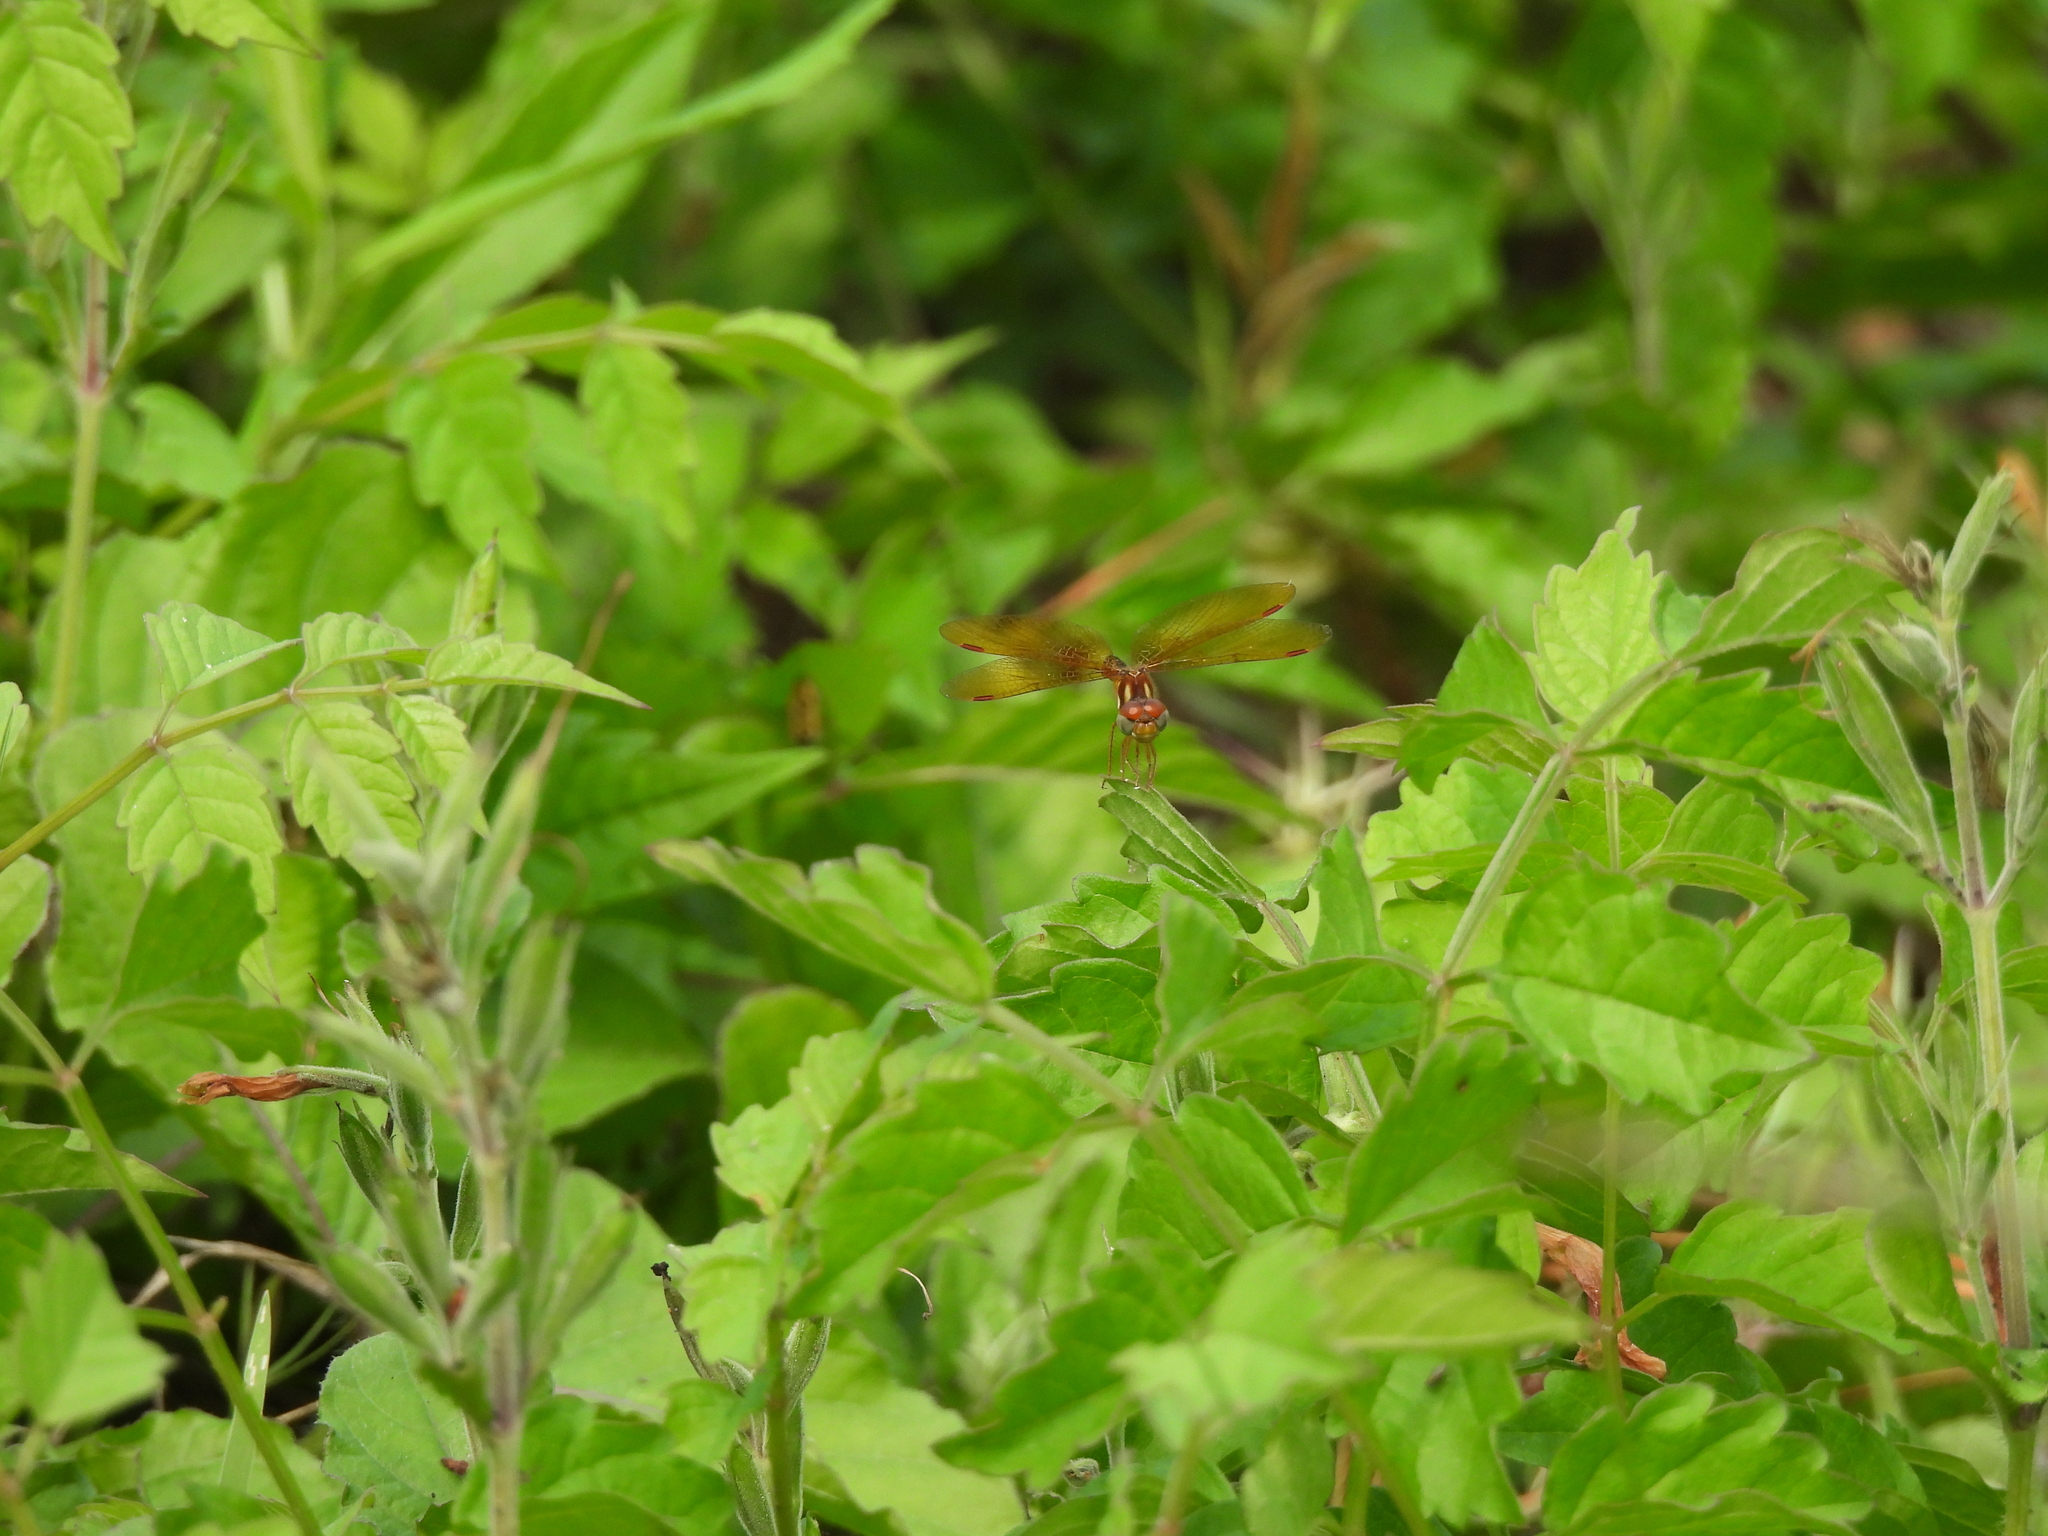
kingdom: Animalia
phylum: Arthropoda
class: Insecta
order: Odonata
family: Libellulidae
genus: Perithemis
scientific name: Perithemis tenera
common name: Eastern amberwing
